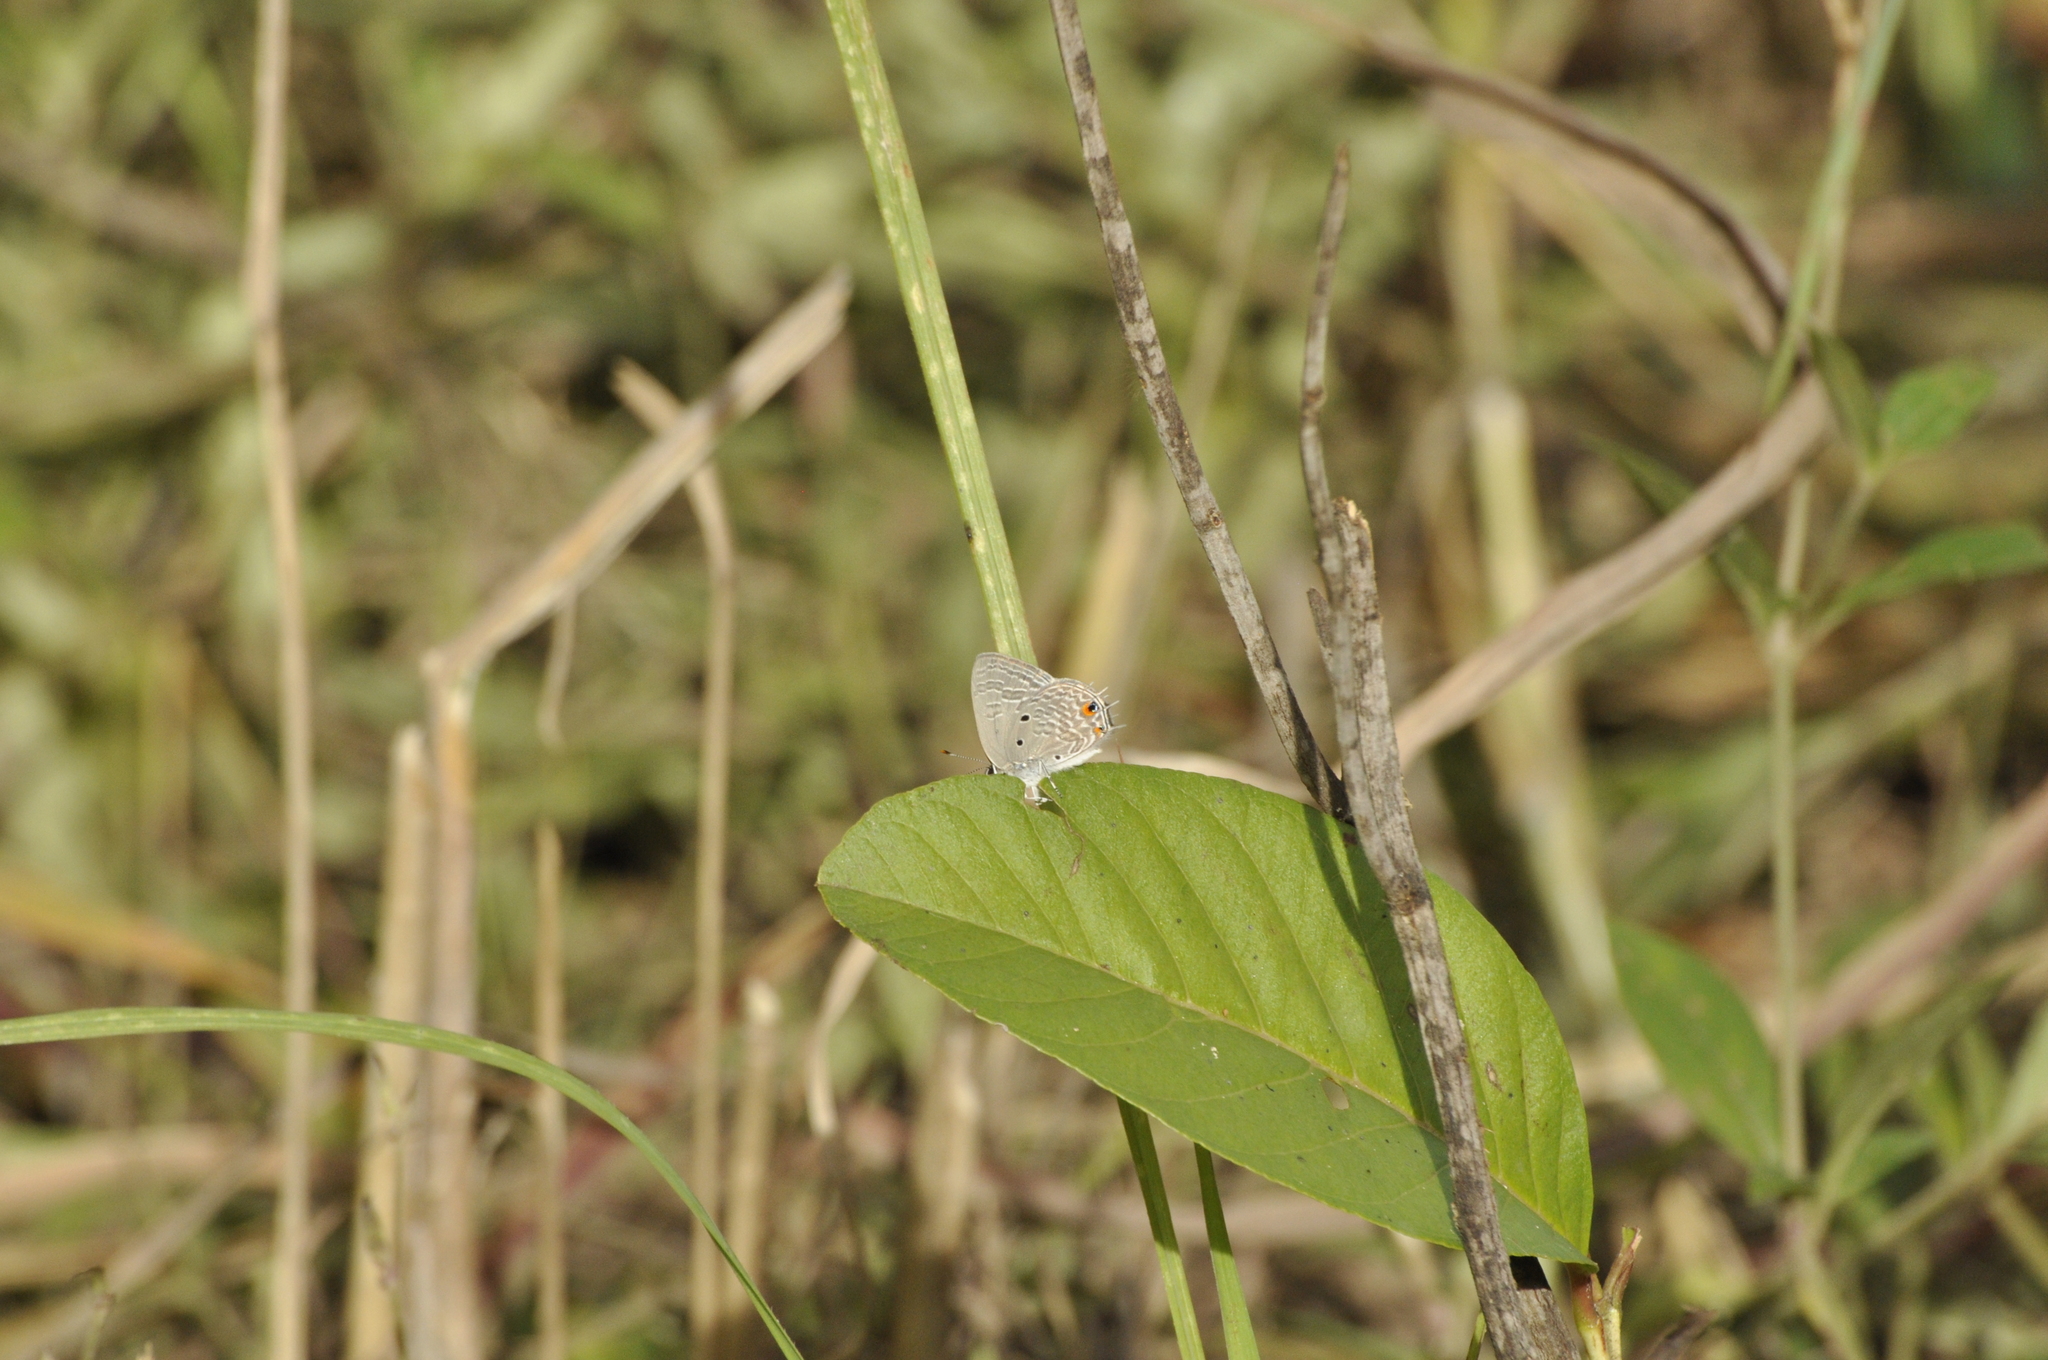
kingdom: Animalia
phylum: Arthropoda
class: Insecta
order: Lepidoptera
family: Lycaenidae
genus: Anthene
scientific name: Anthene lunulata
